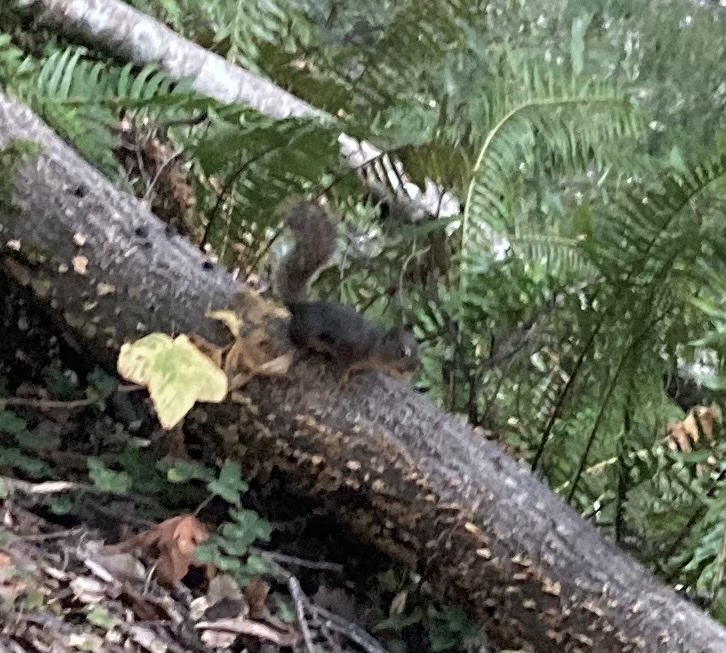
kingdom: Animalia
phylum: Chordata
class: Mammalia
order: Rodentia
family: Sciuridae
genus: Tamiasciurus
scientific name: Tamiasciurus douglasii
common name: Douglas's squirrel
